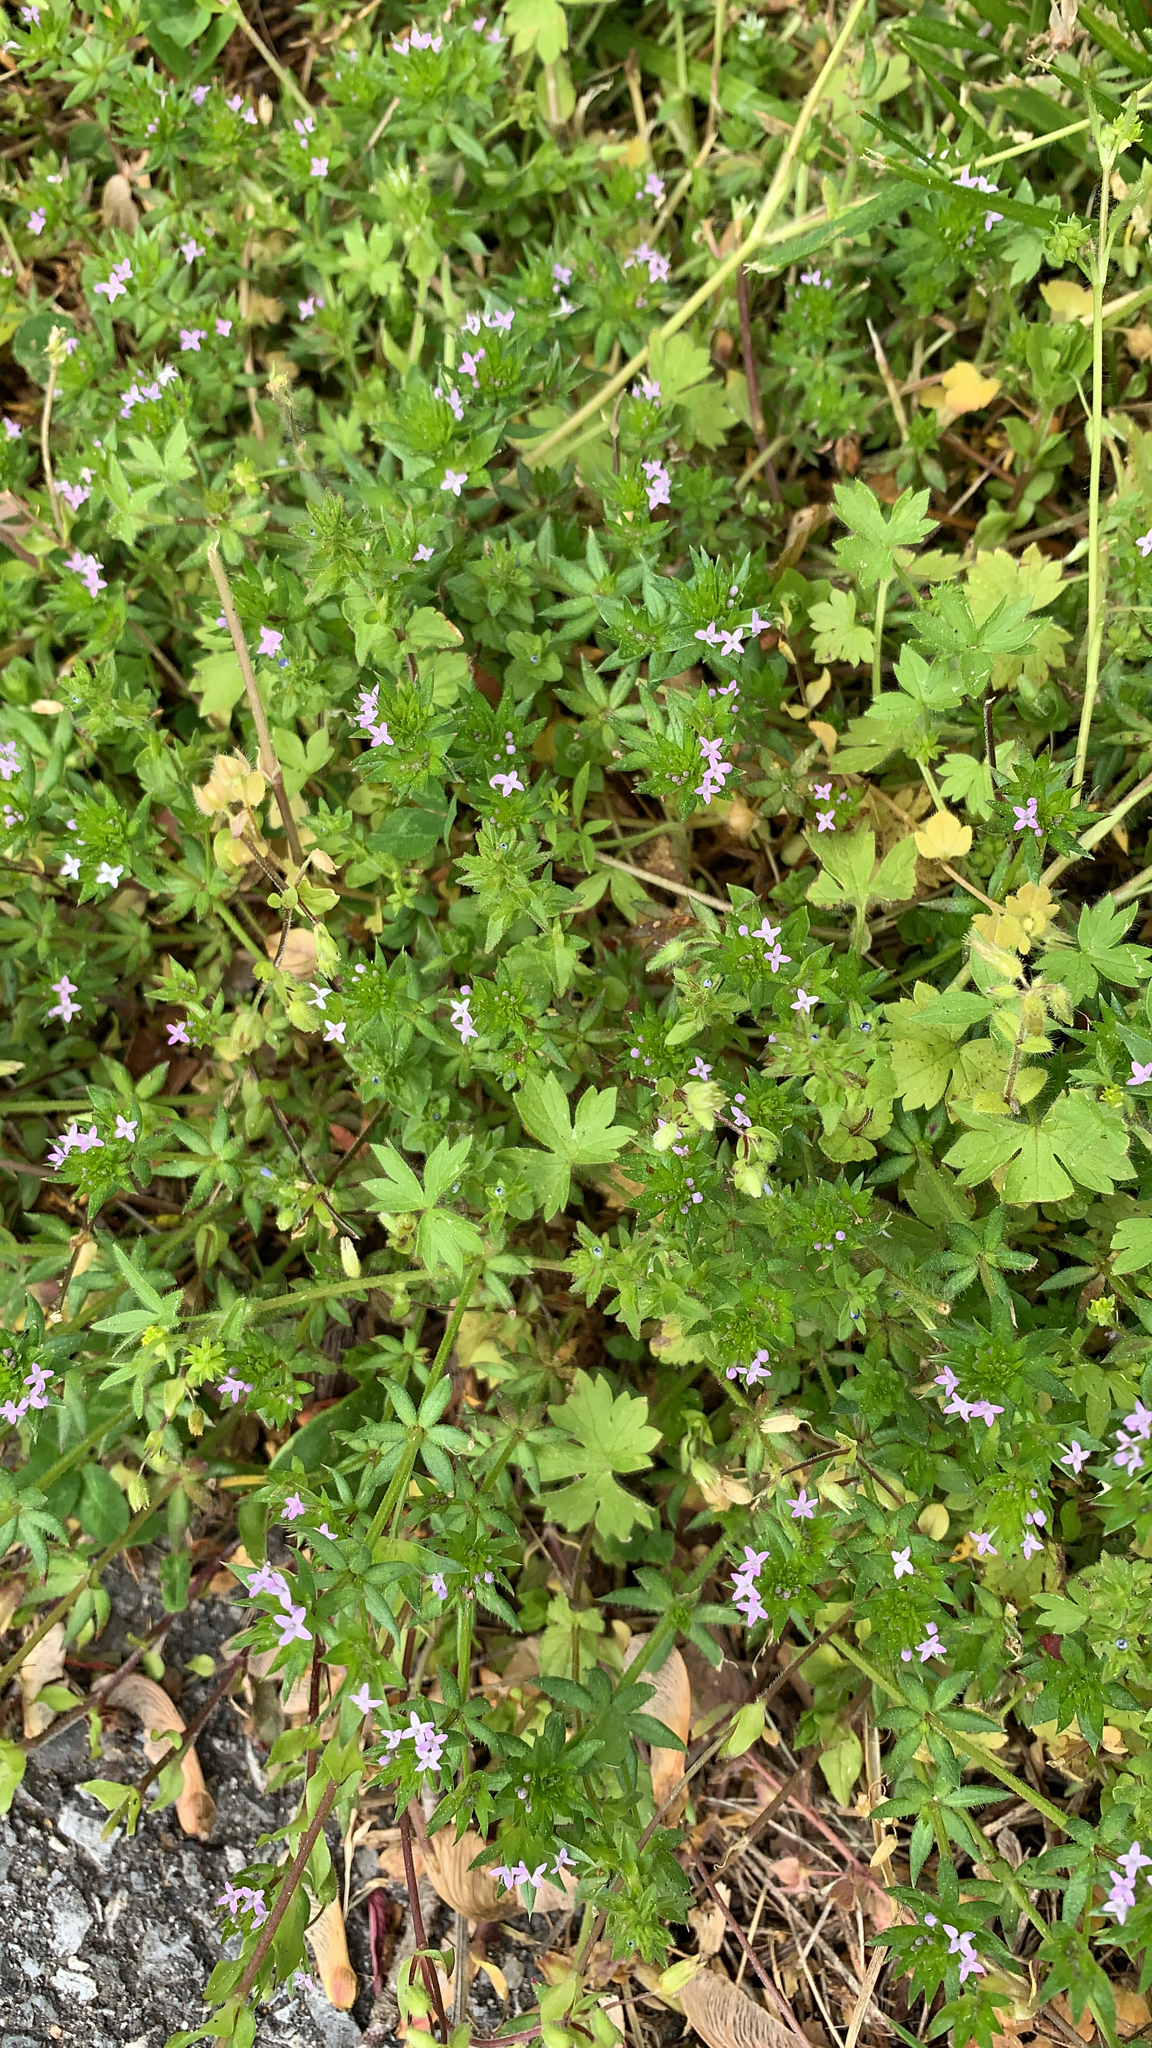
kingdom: Plantae
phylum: Tracheophyta
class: Magnoliopsida
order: Gentianales
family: Rubiaceae
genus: Sherardia
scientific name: Sherardia arvensis
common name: Field madder
